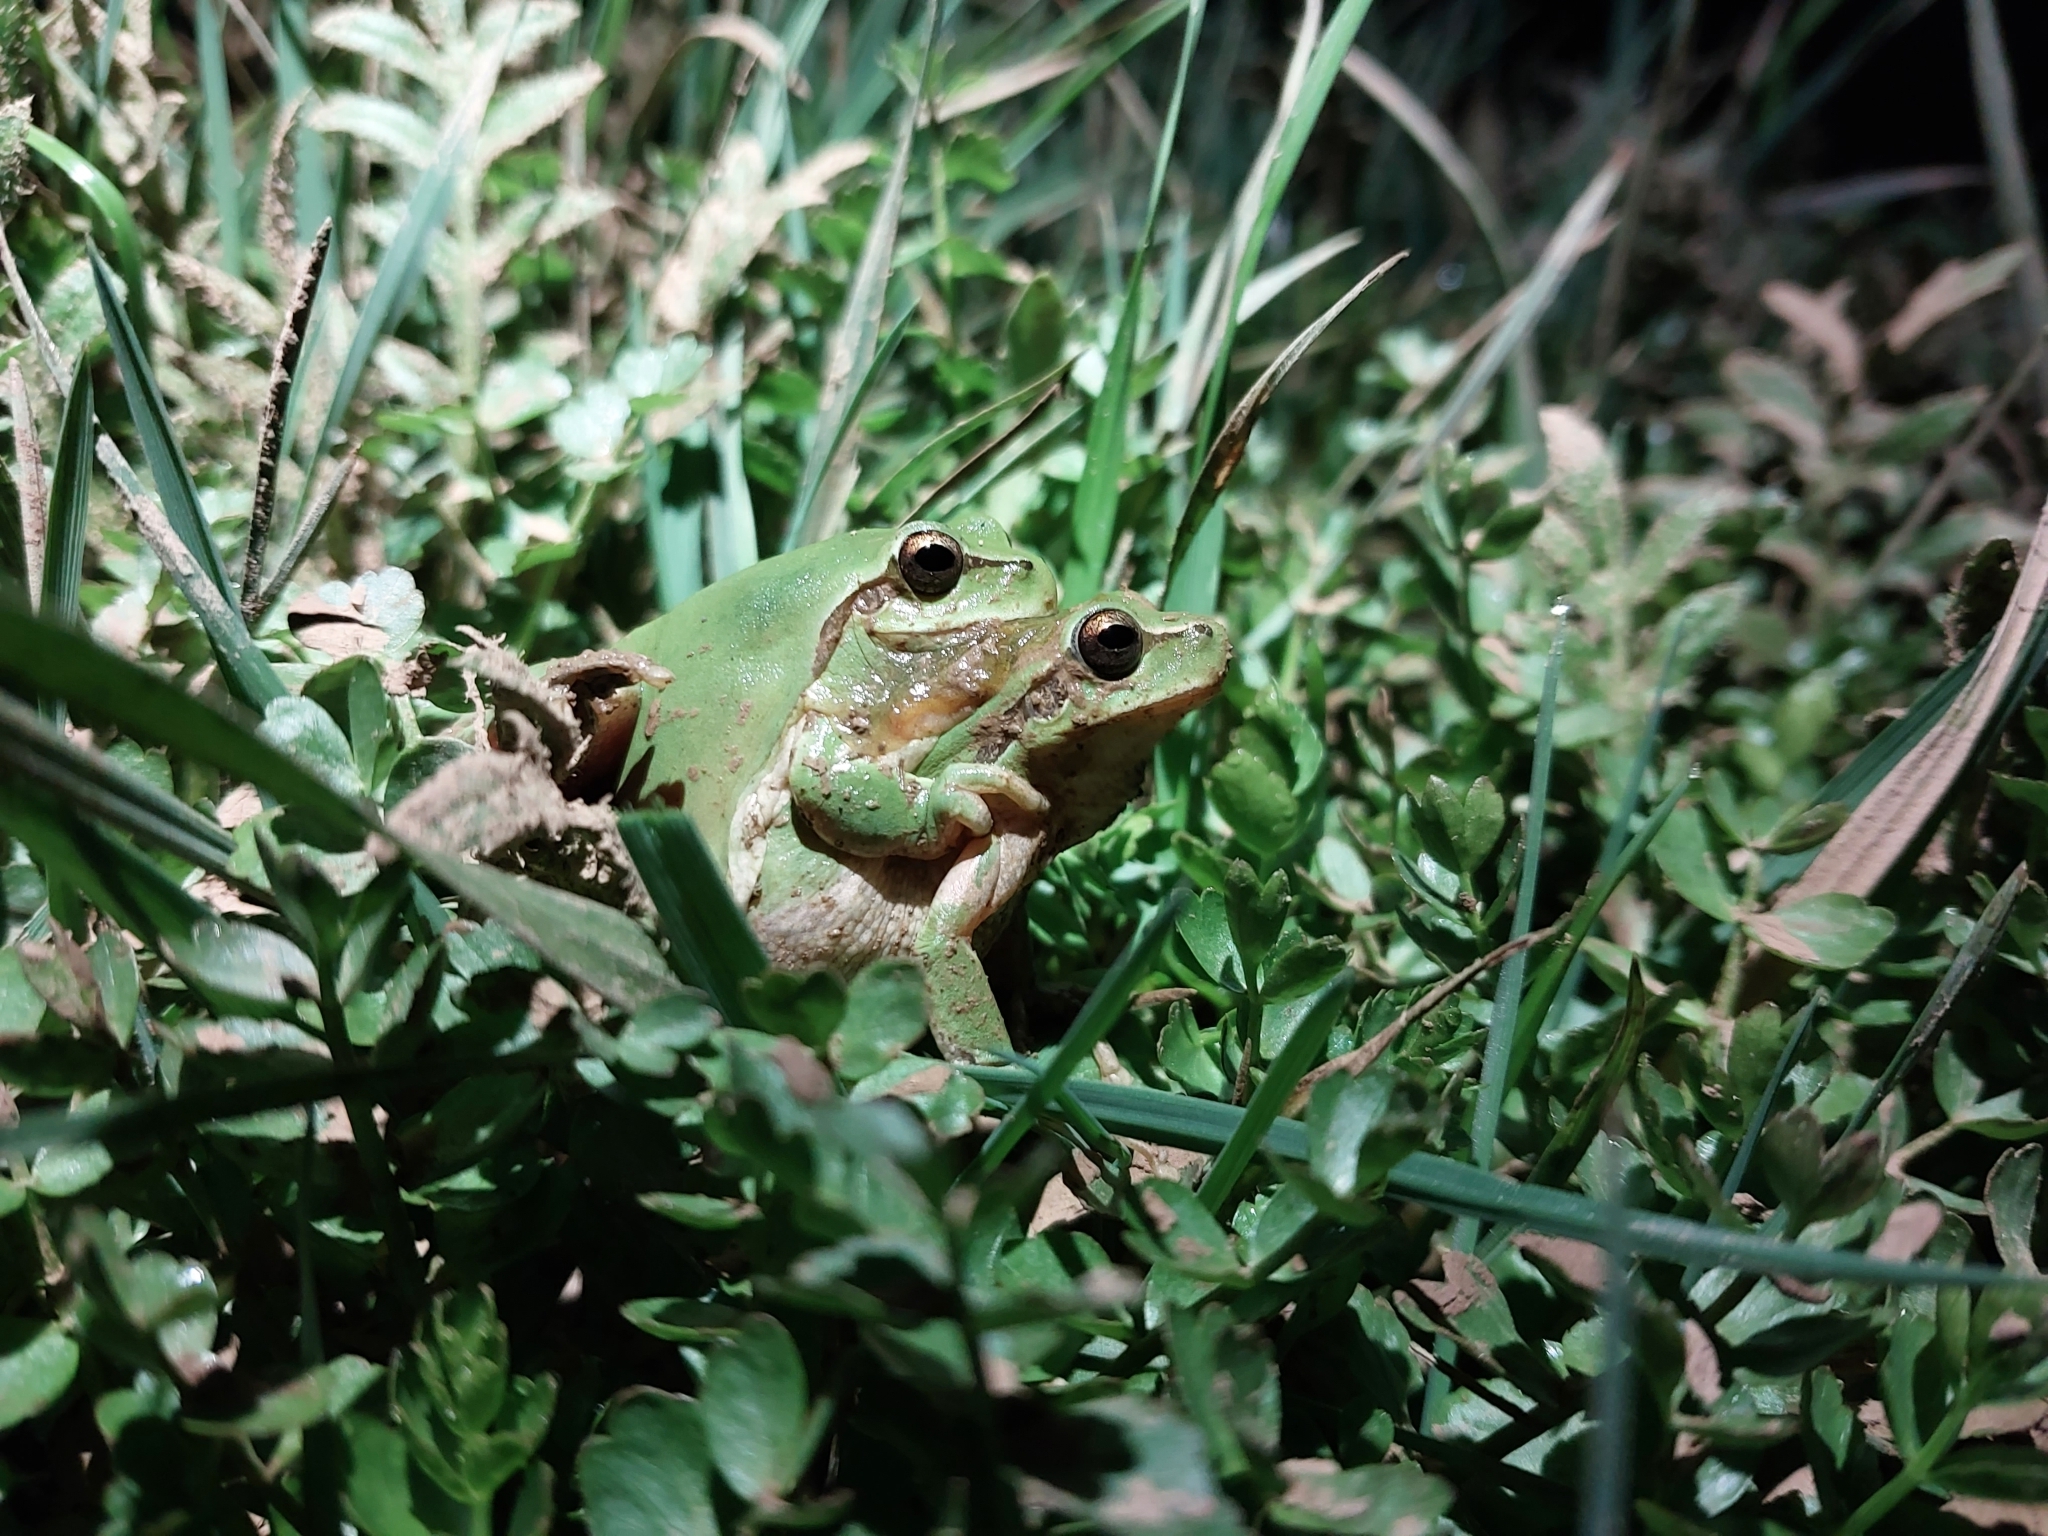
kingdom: Animalia
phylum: Chordata
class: Amphibia
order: Anura
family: Hylidae
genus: Hyla
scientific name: Hyla meridionalis
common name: Stripeless tree frog
